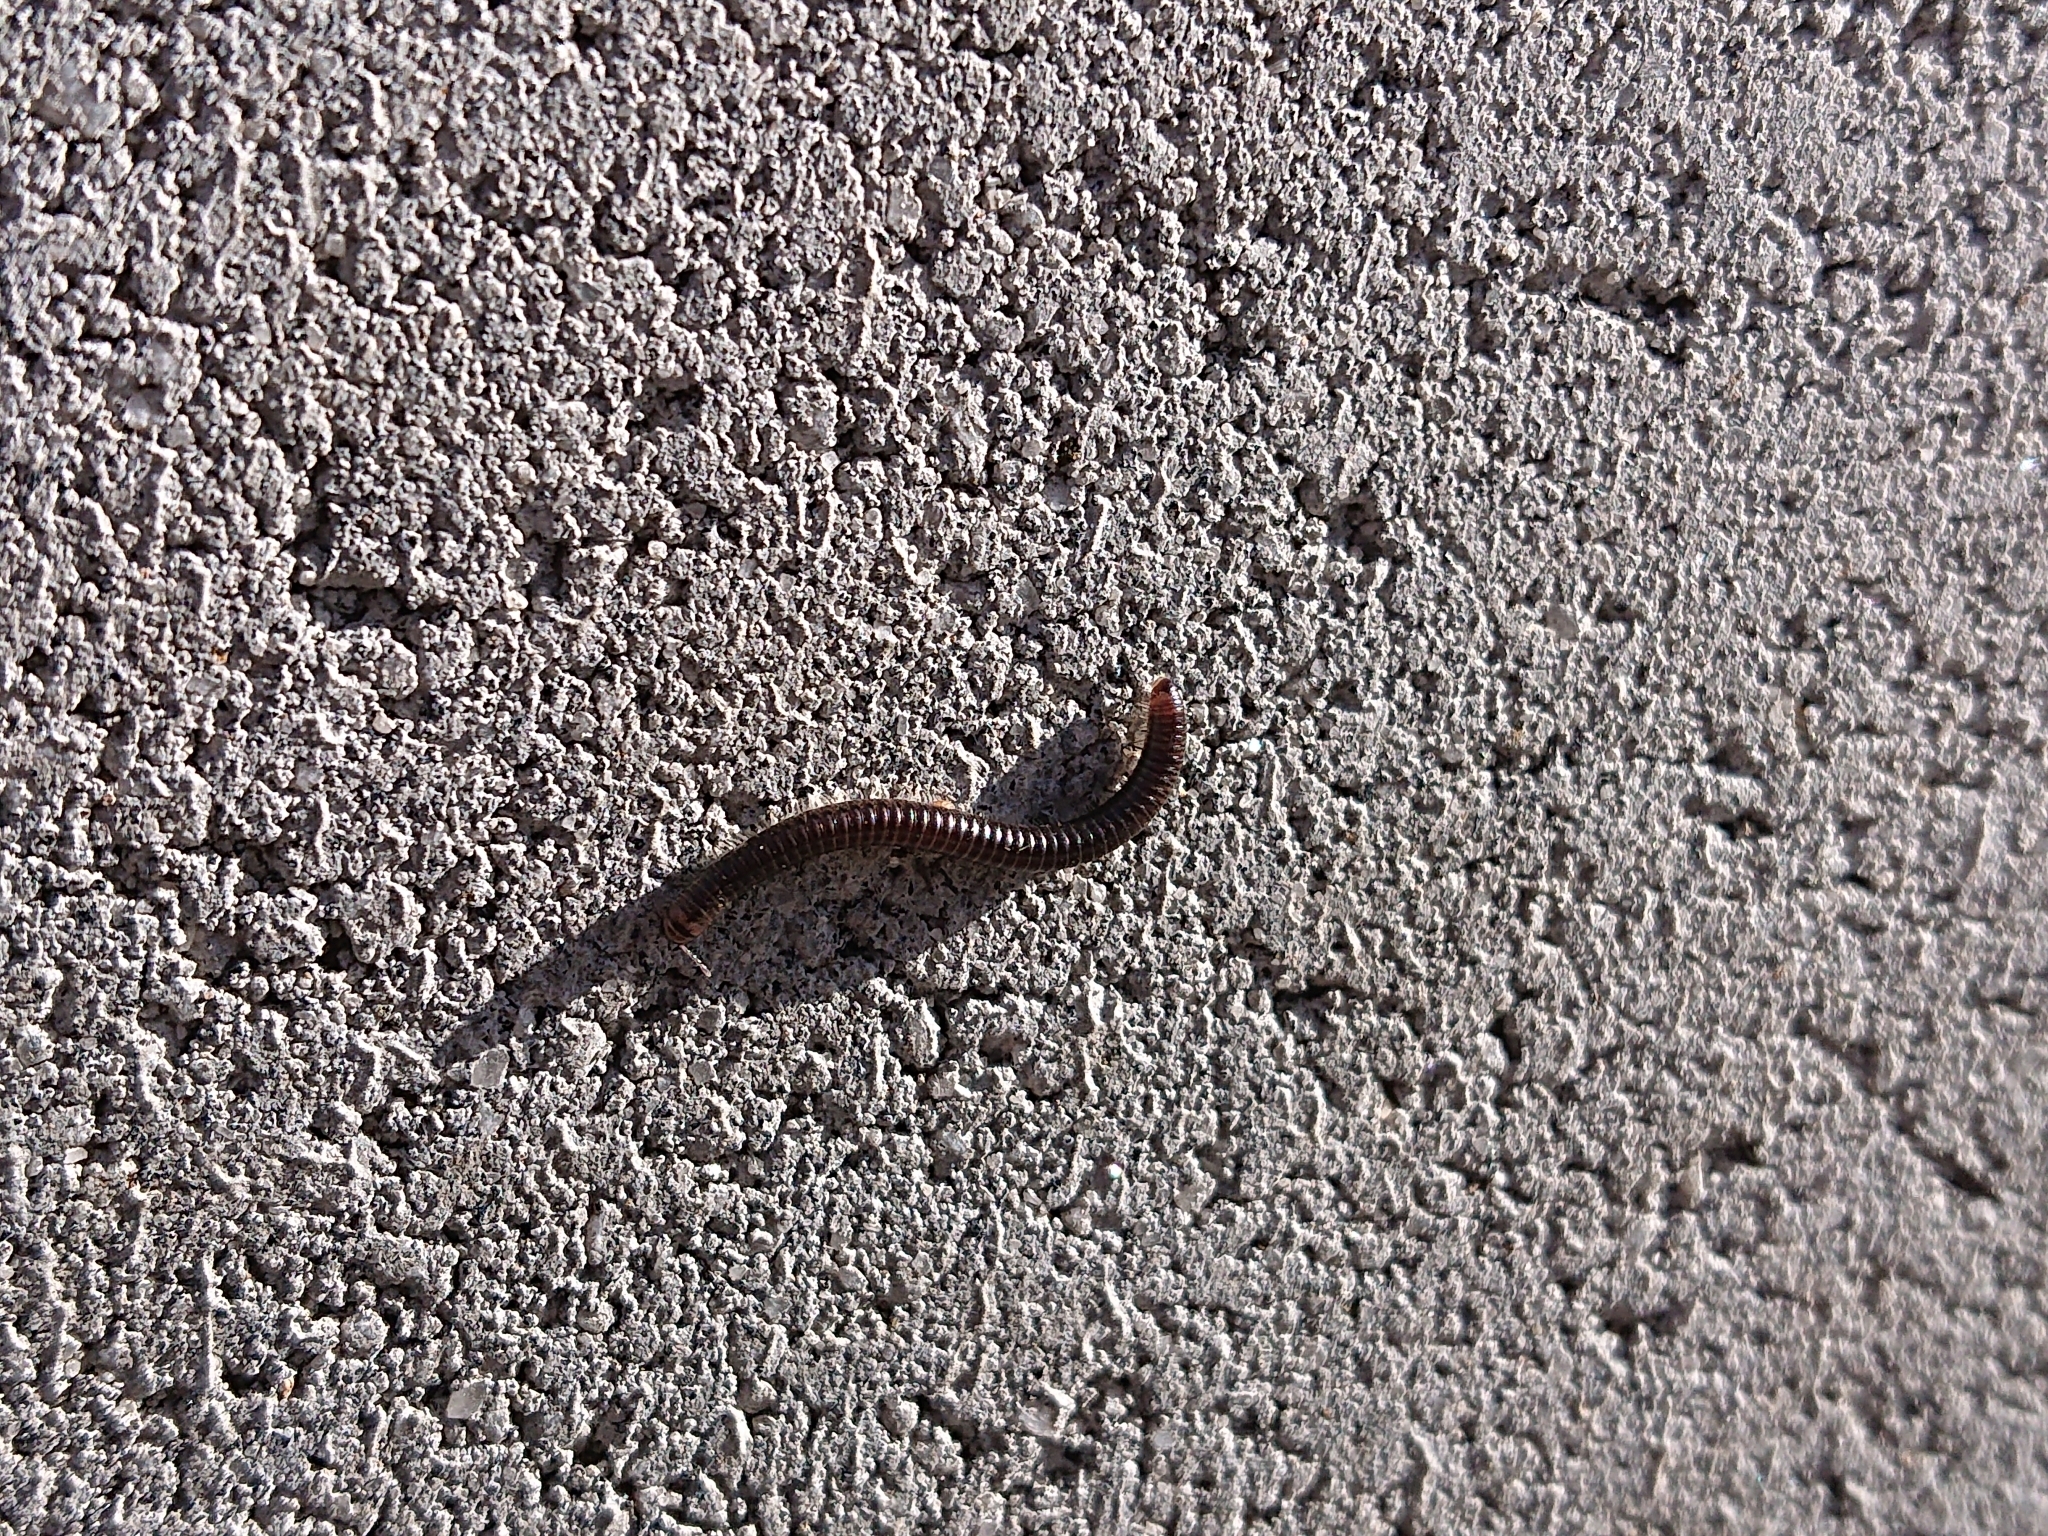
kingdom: Animalia
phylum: Arthropoda
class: Diplopoda
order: Julida
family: Julidae
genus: Ommatoiulus
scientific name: Ommatoiulus moreleti
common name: Portuguese millipede
